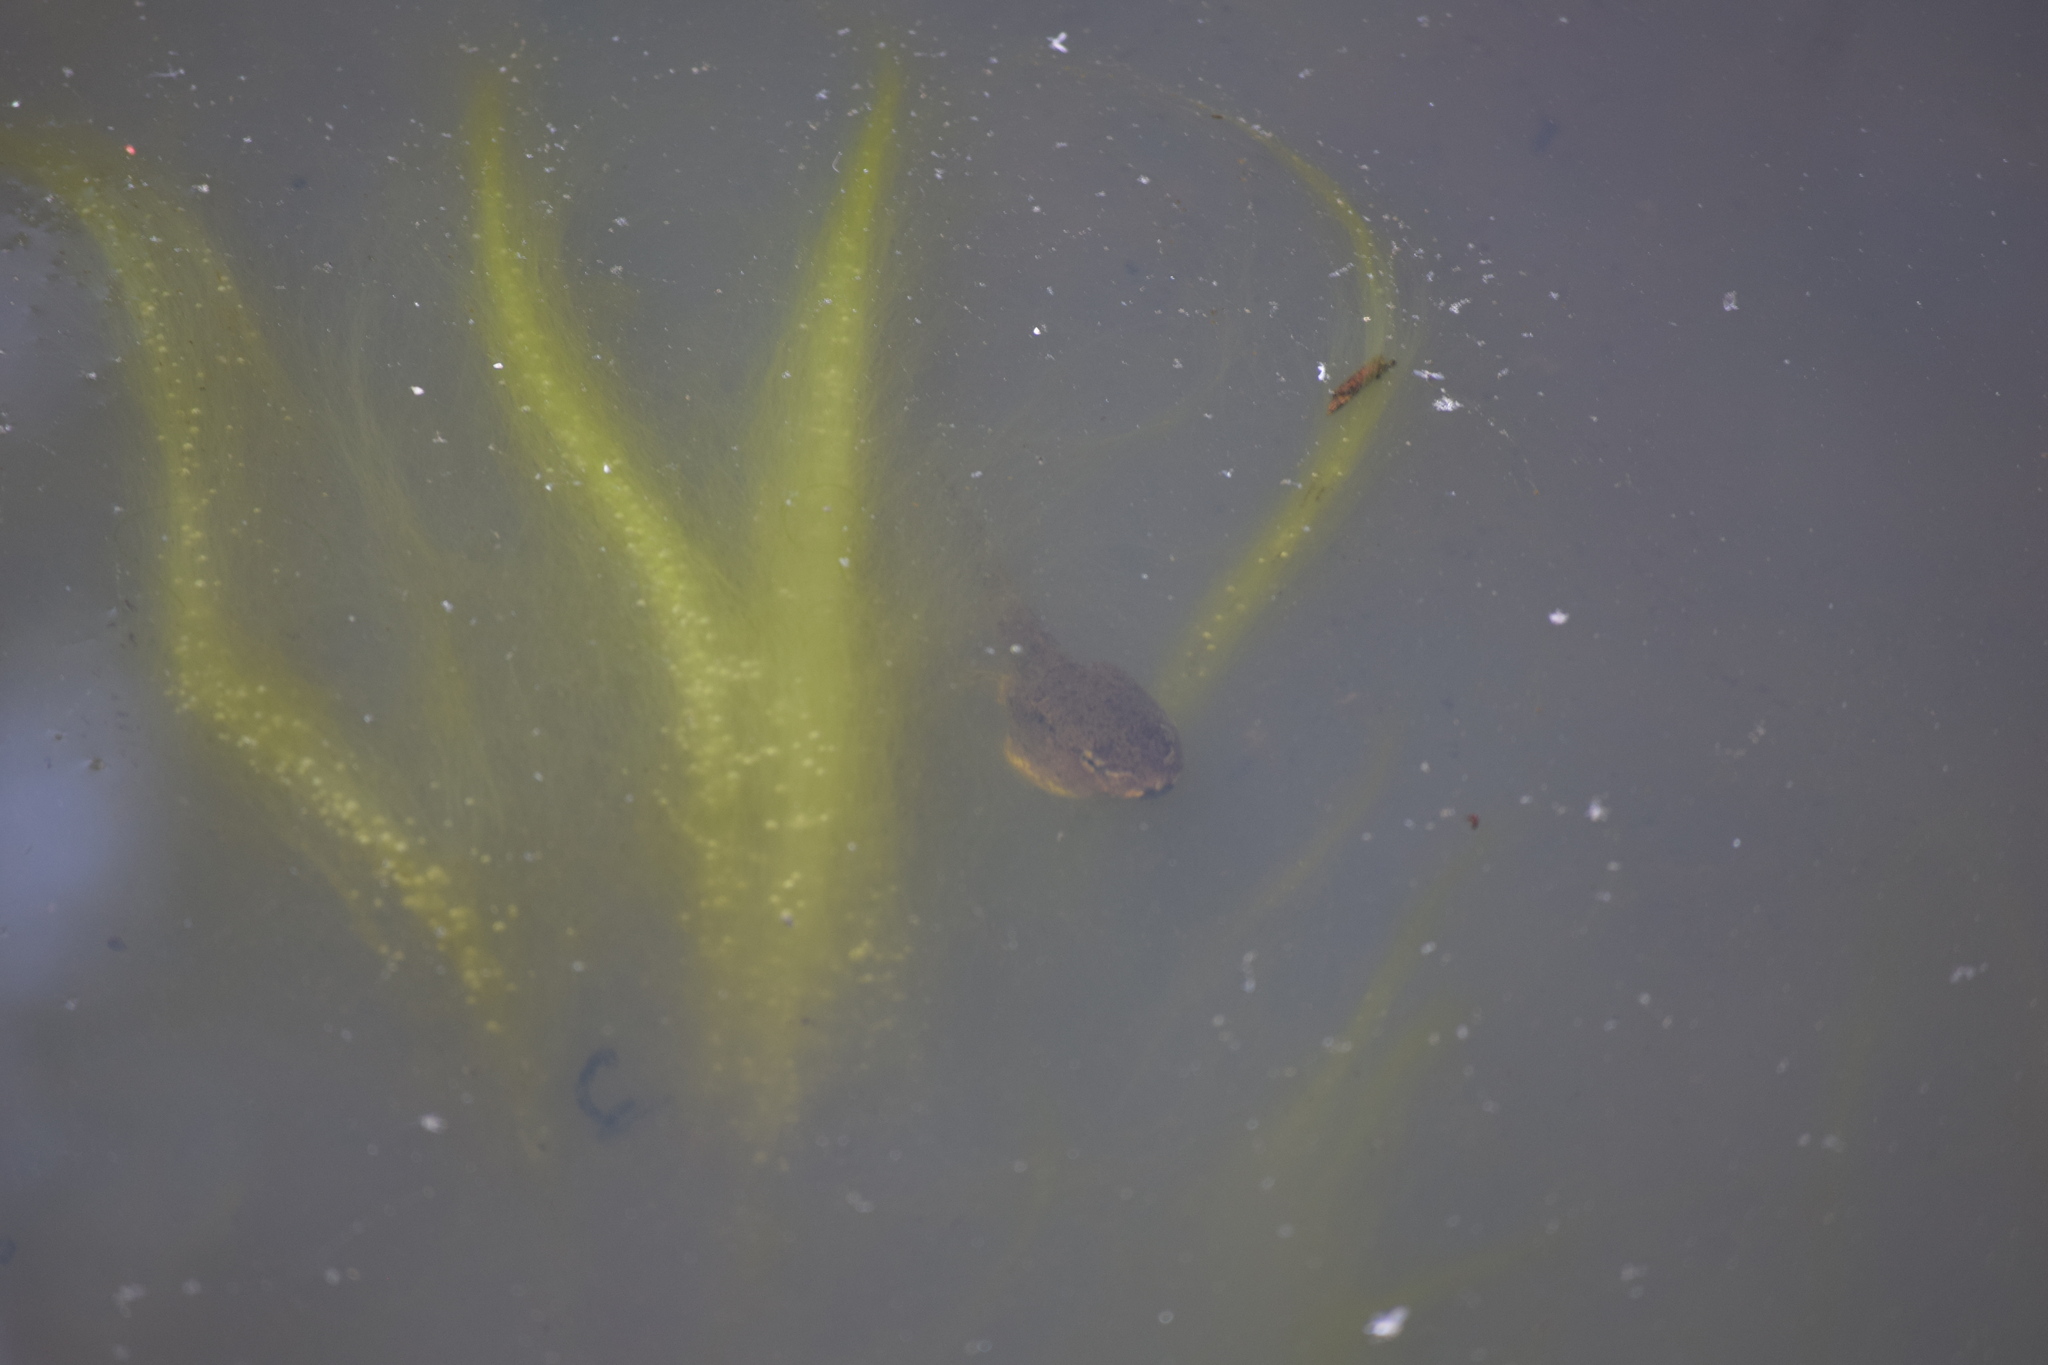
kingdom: Animalia
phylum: Chordata
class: Amphibia
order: Anura
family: Ranidae
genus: Lithobates
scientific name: Lithobates clamitans
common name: Green frog
